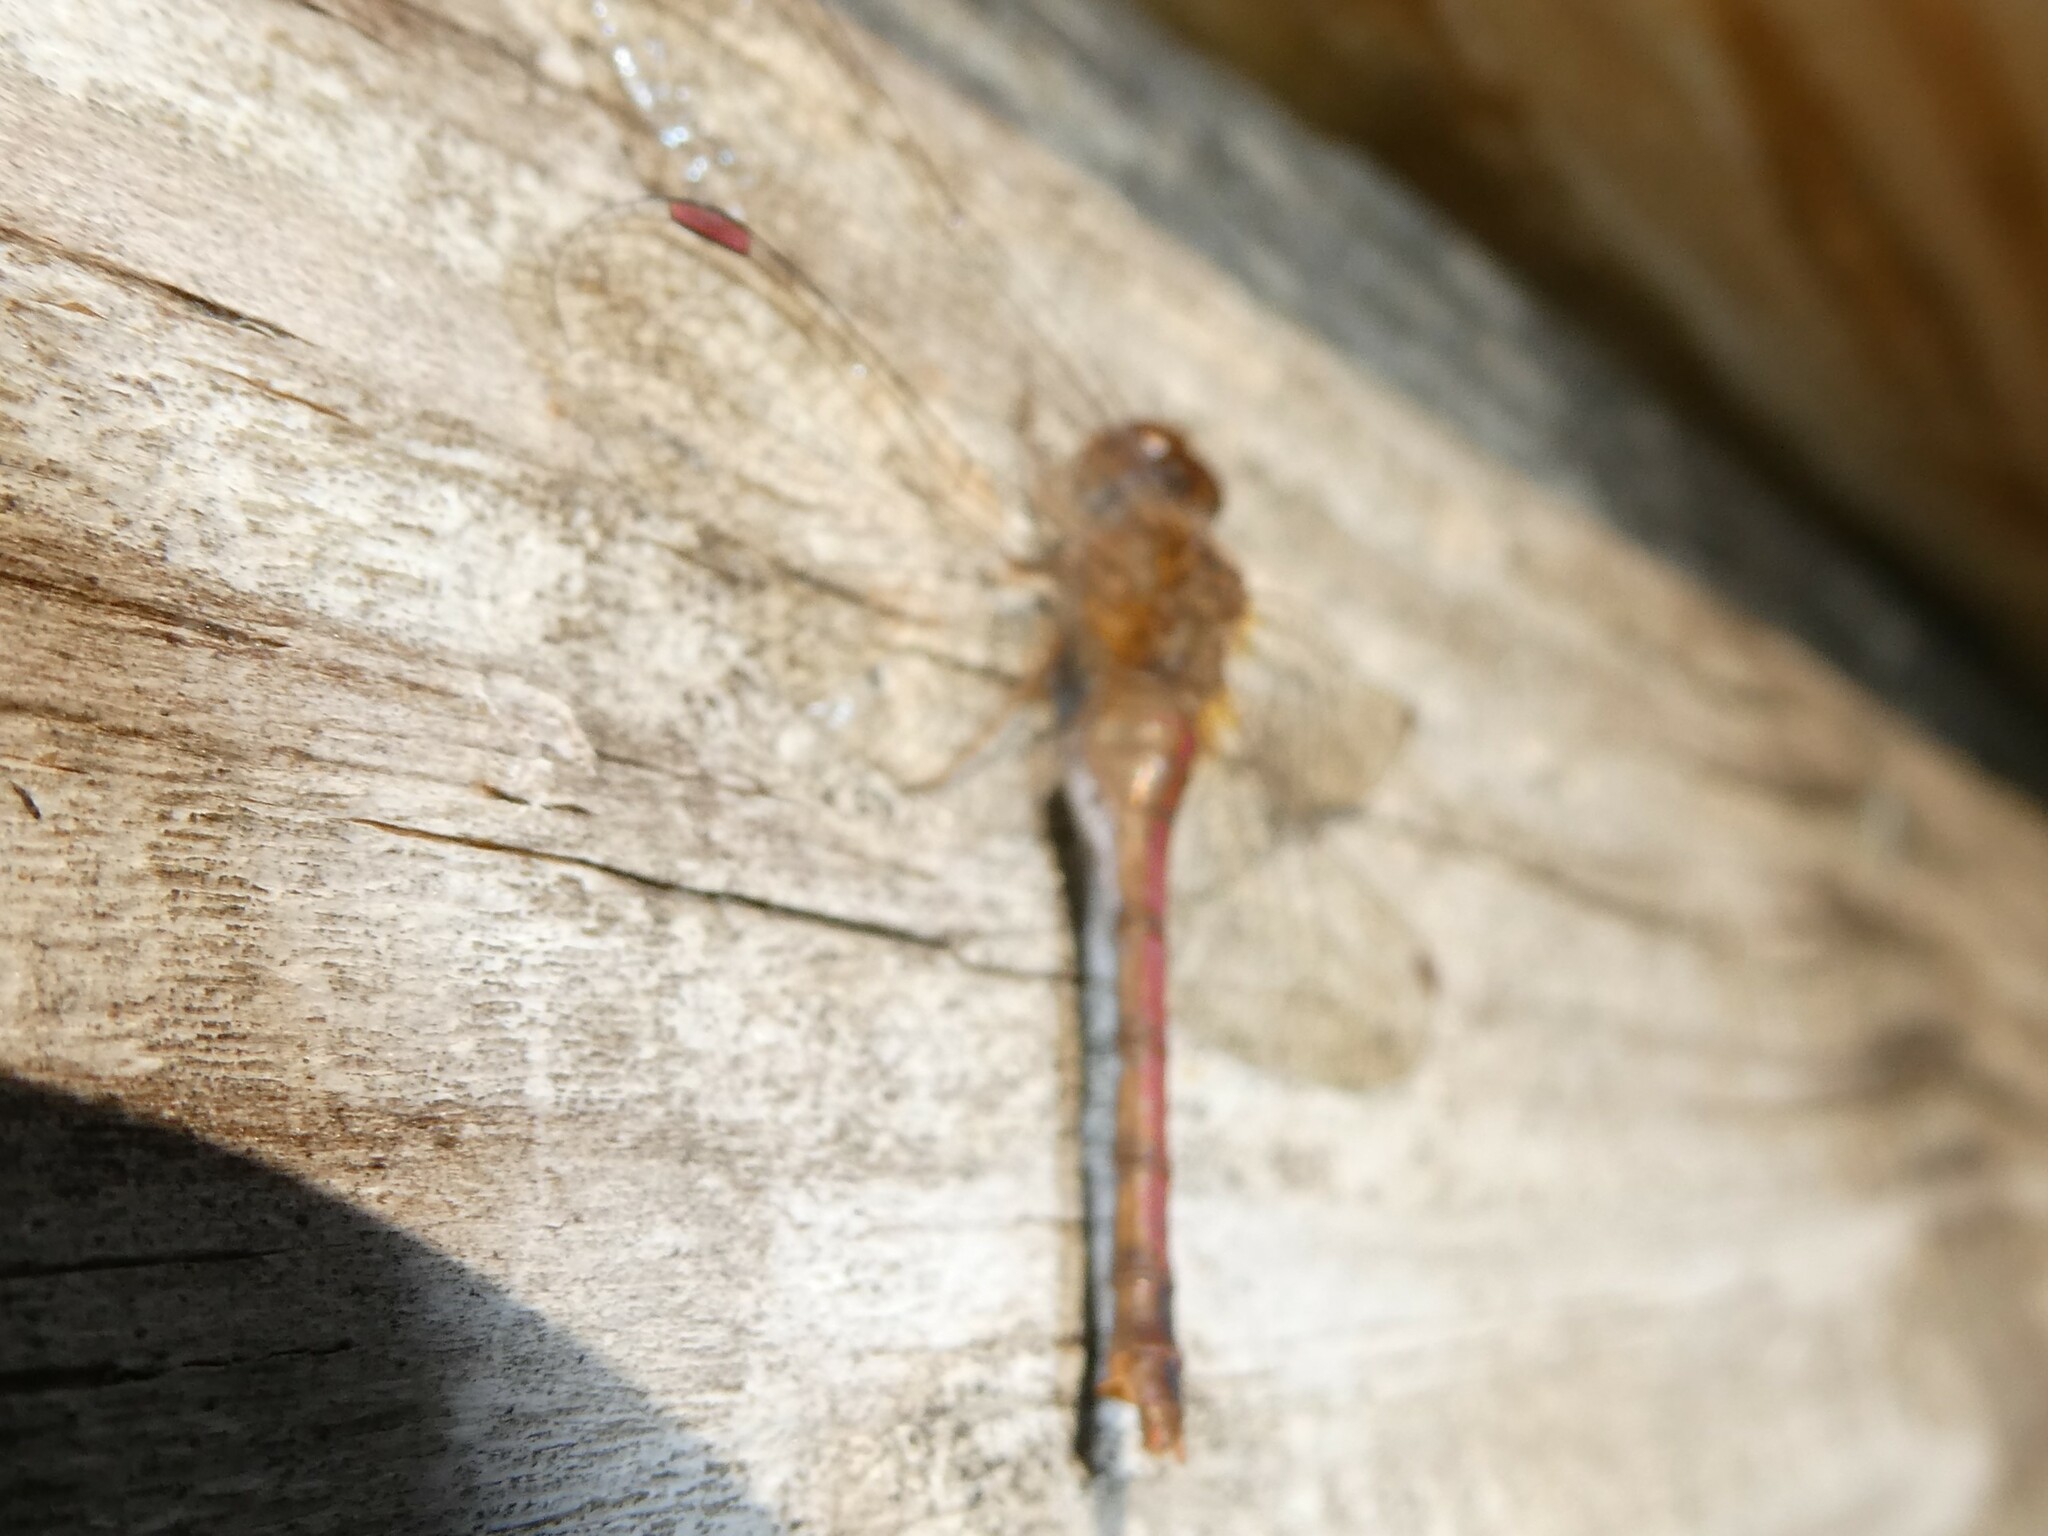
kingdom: Animalia
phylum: Arthropoda
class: Insecta
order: Odonata
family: Libellulidae
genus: Sympetrum
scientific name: Sympetrum vicinum
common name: Autumn meadowhawk
